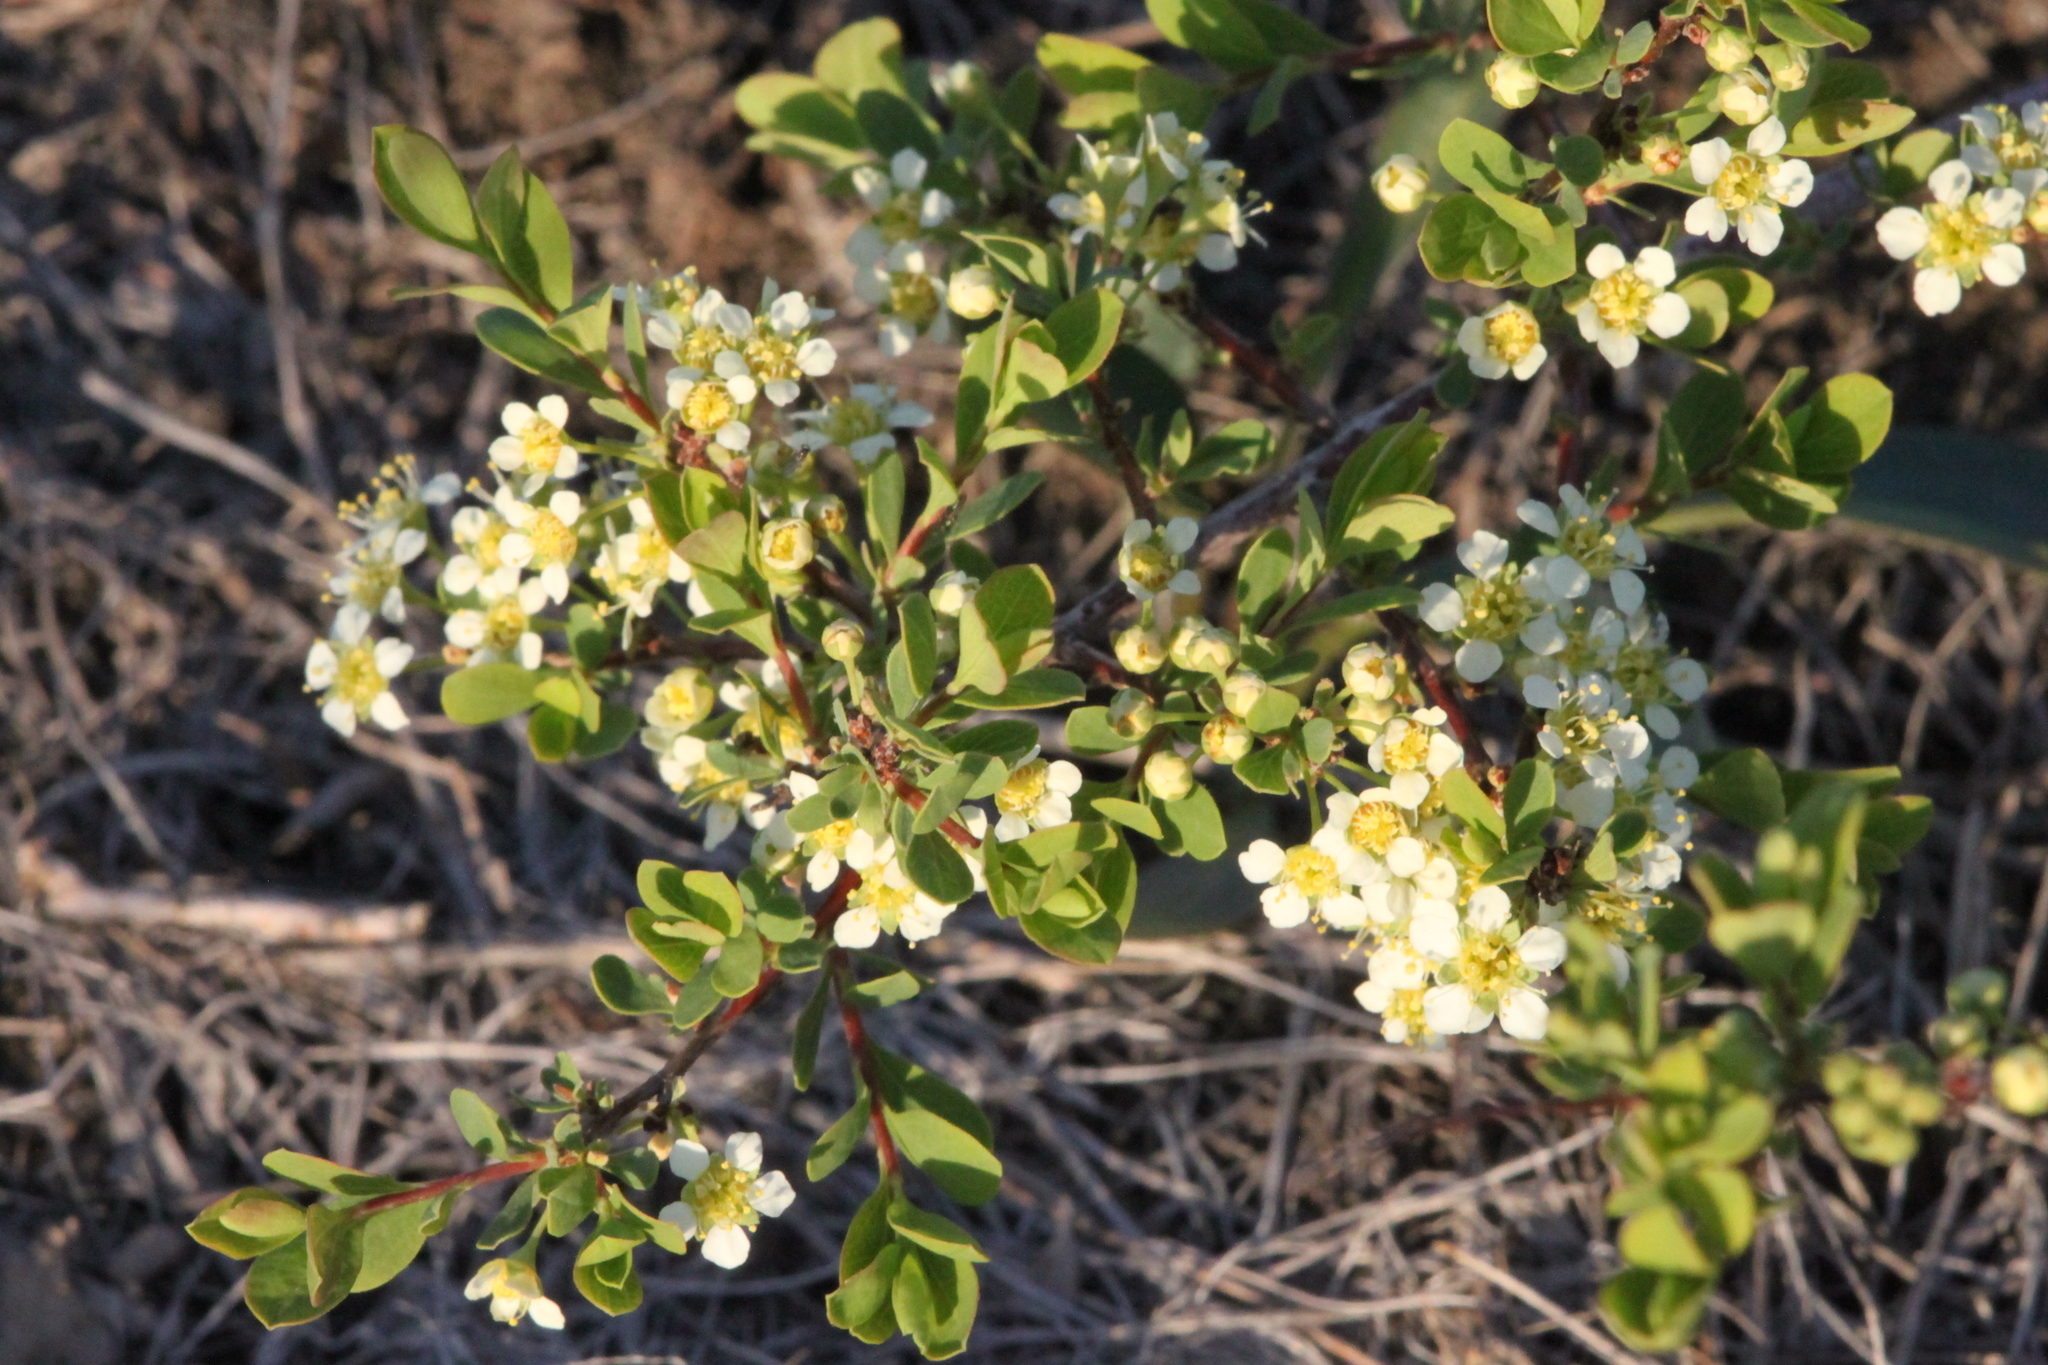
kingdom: Plantae
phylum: Tracheophyta
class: Magnoliopsida
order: Rosales
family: Rosaceae
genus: Spiraea
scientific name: Spiraea hypericifolia
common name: Iberian spirea
